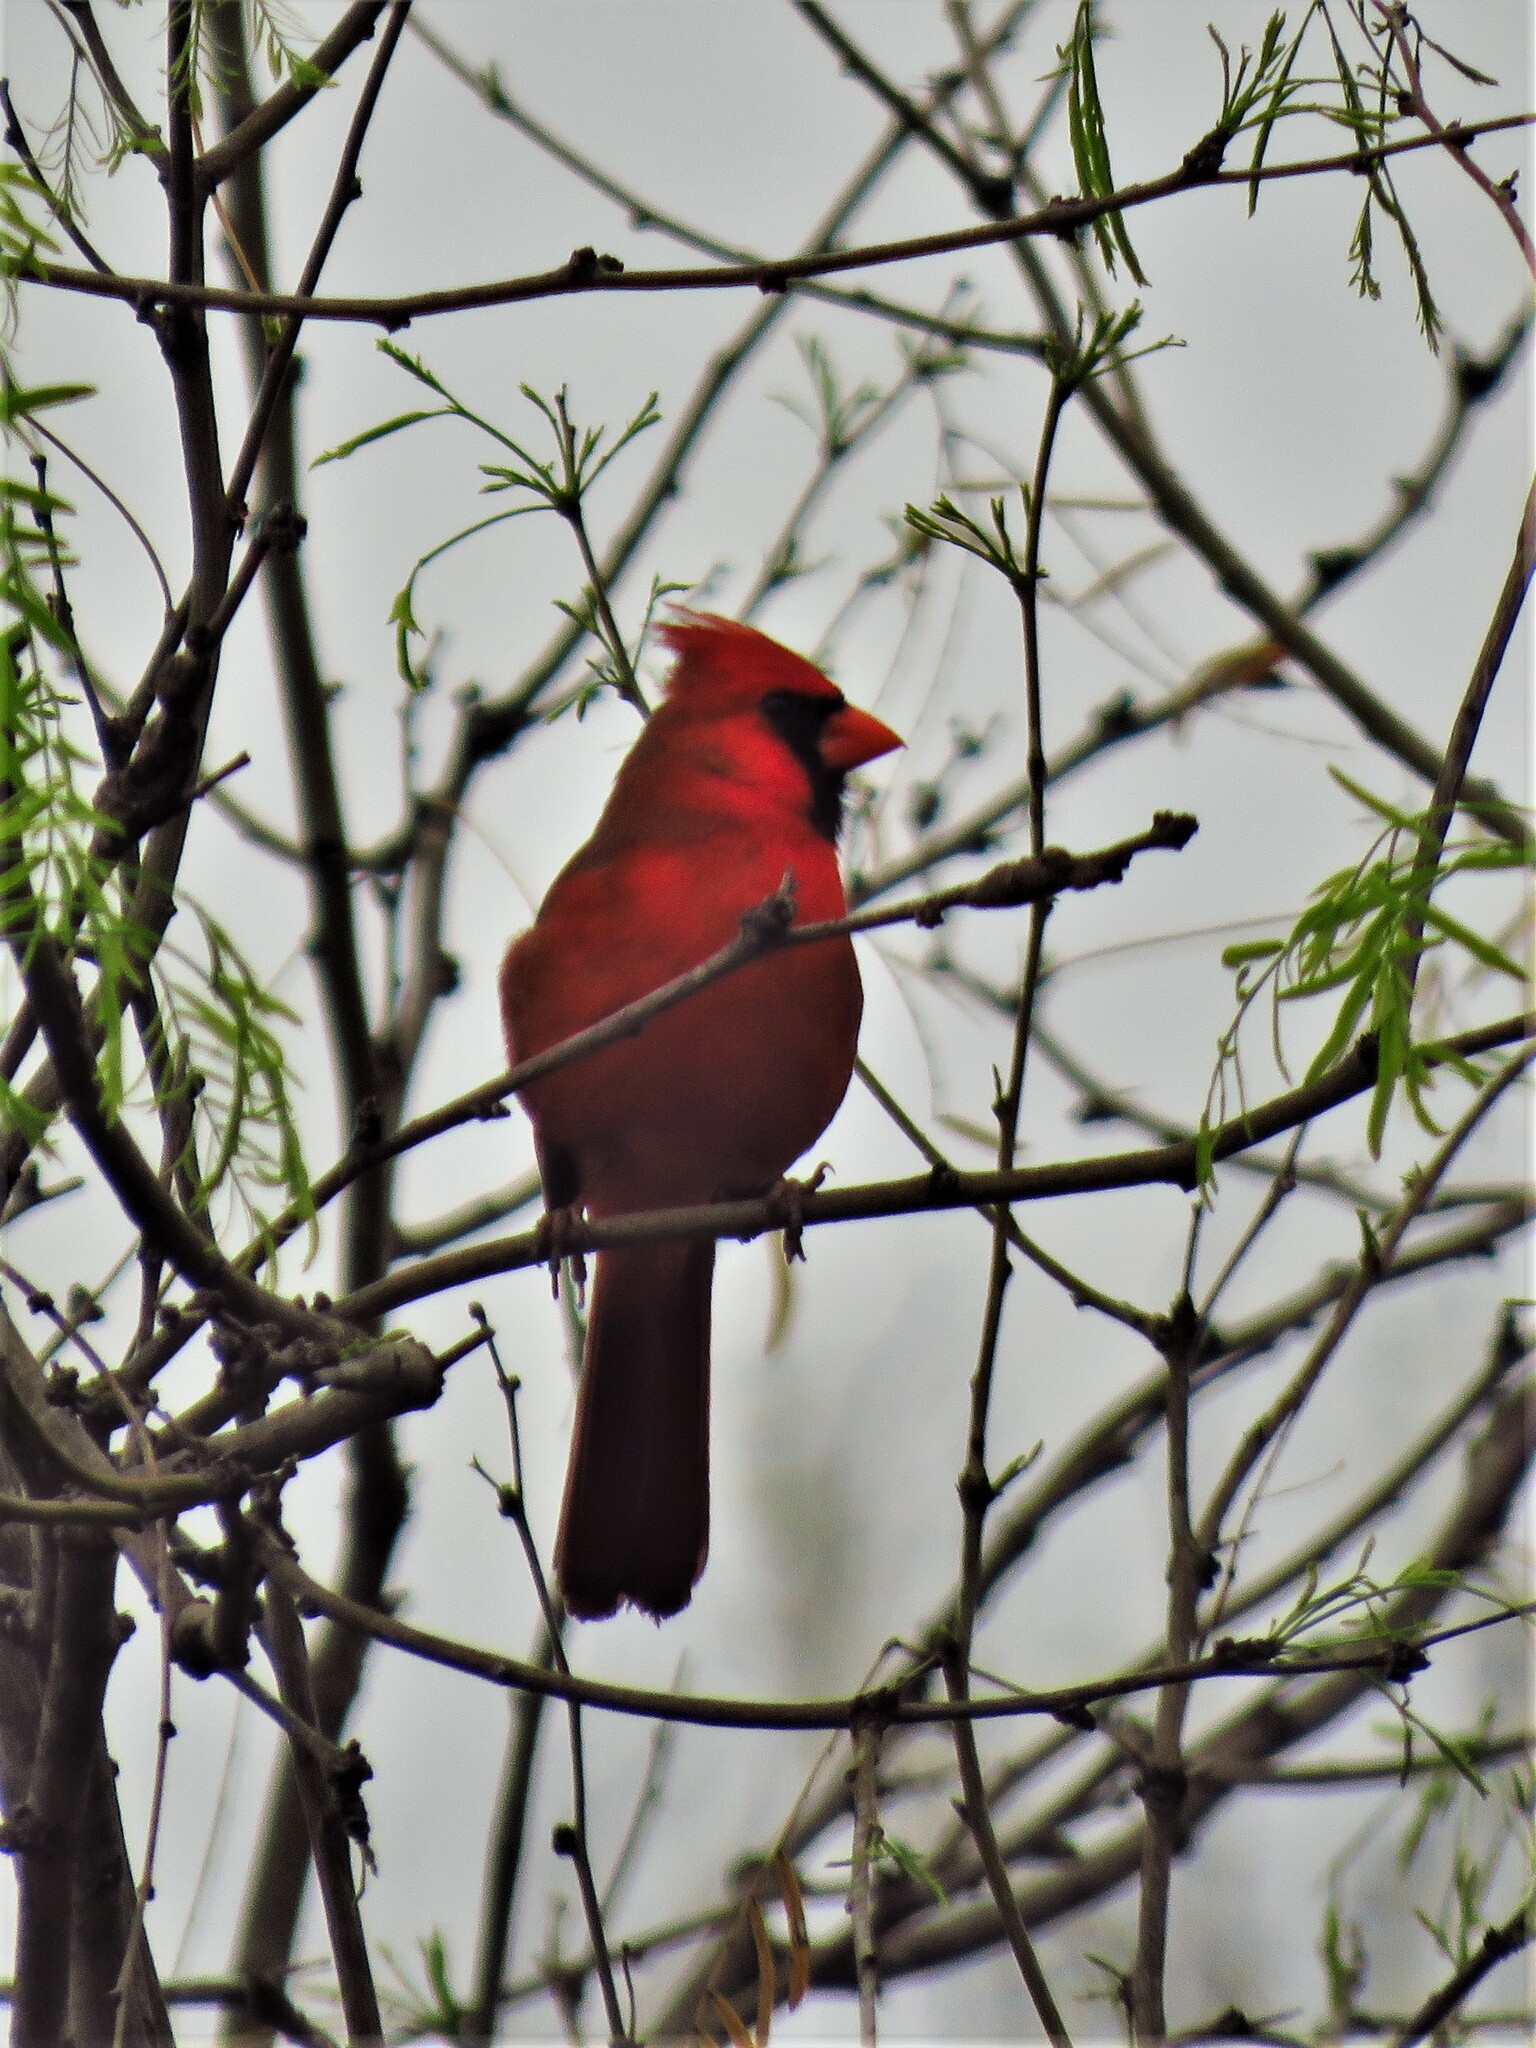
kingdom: Animalia
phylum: Chordata
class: Aves
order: Passeriformes
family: Cardinalidae
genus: Cardinalis
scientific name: Cardinalis cardinalis
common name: Northern cardinal
